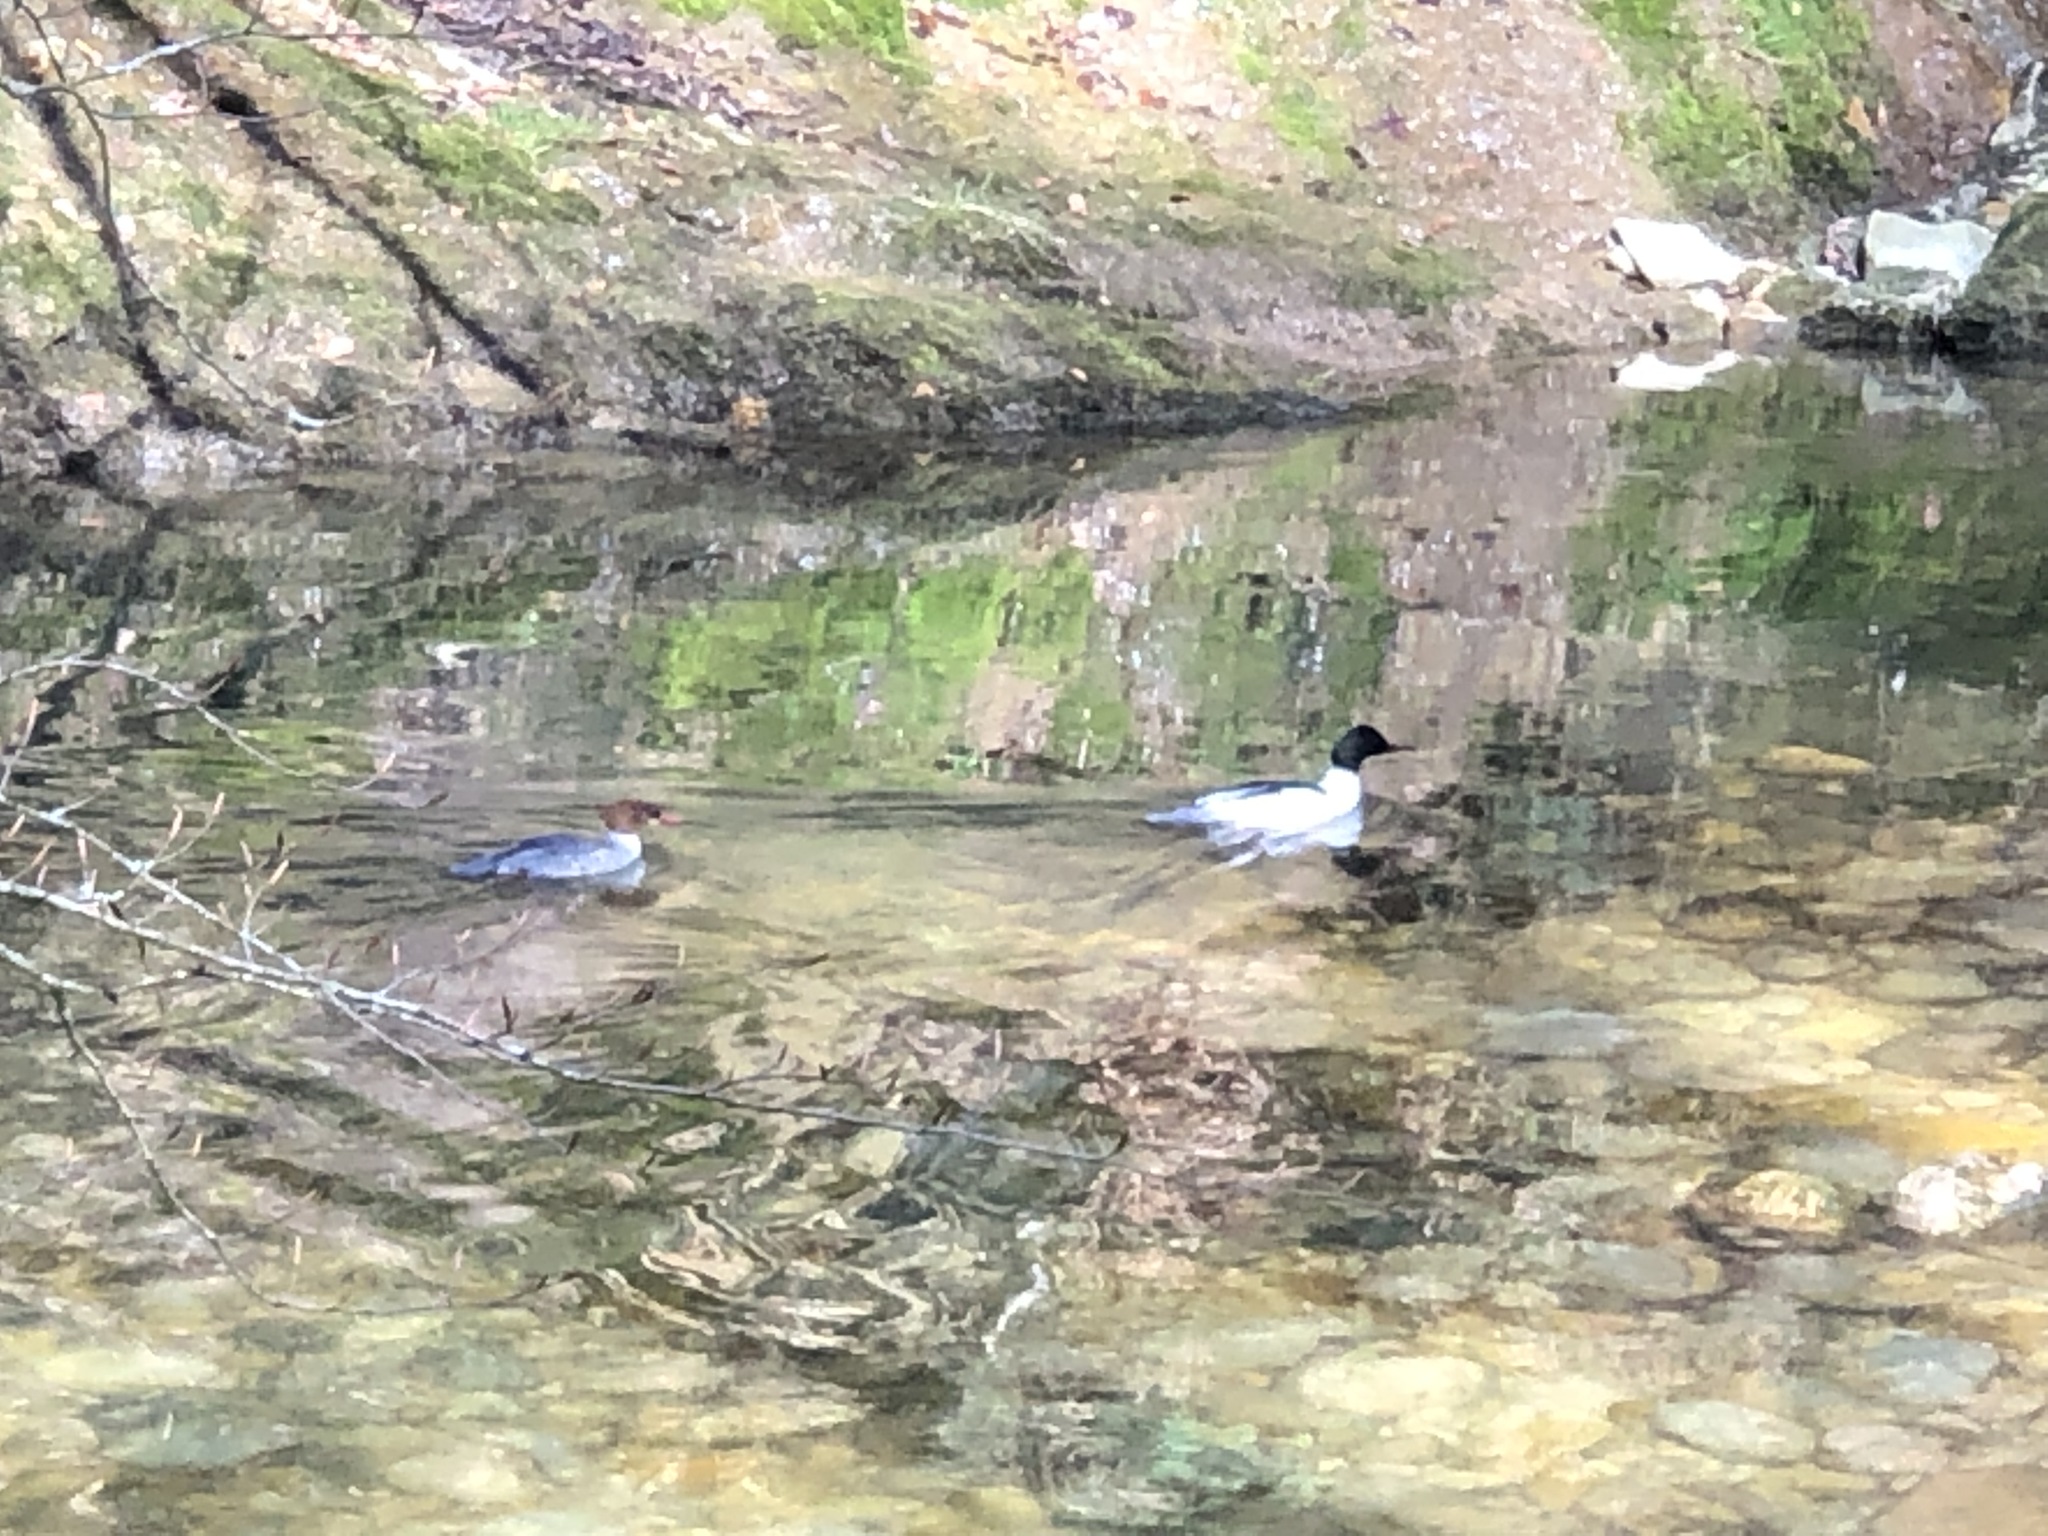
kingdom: Animalia
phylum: Chordata
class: Aves
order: Anseriformes
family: Anatidae
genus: Mergus
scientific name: Mergus merganser
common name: Common merganser
